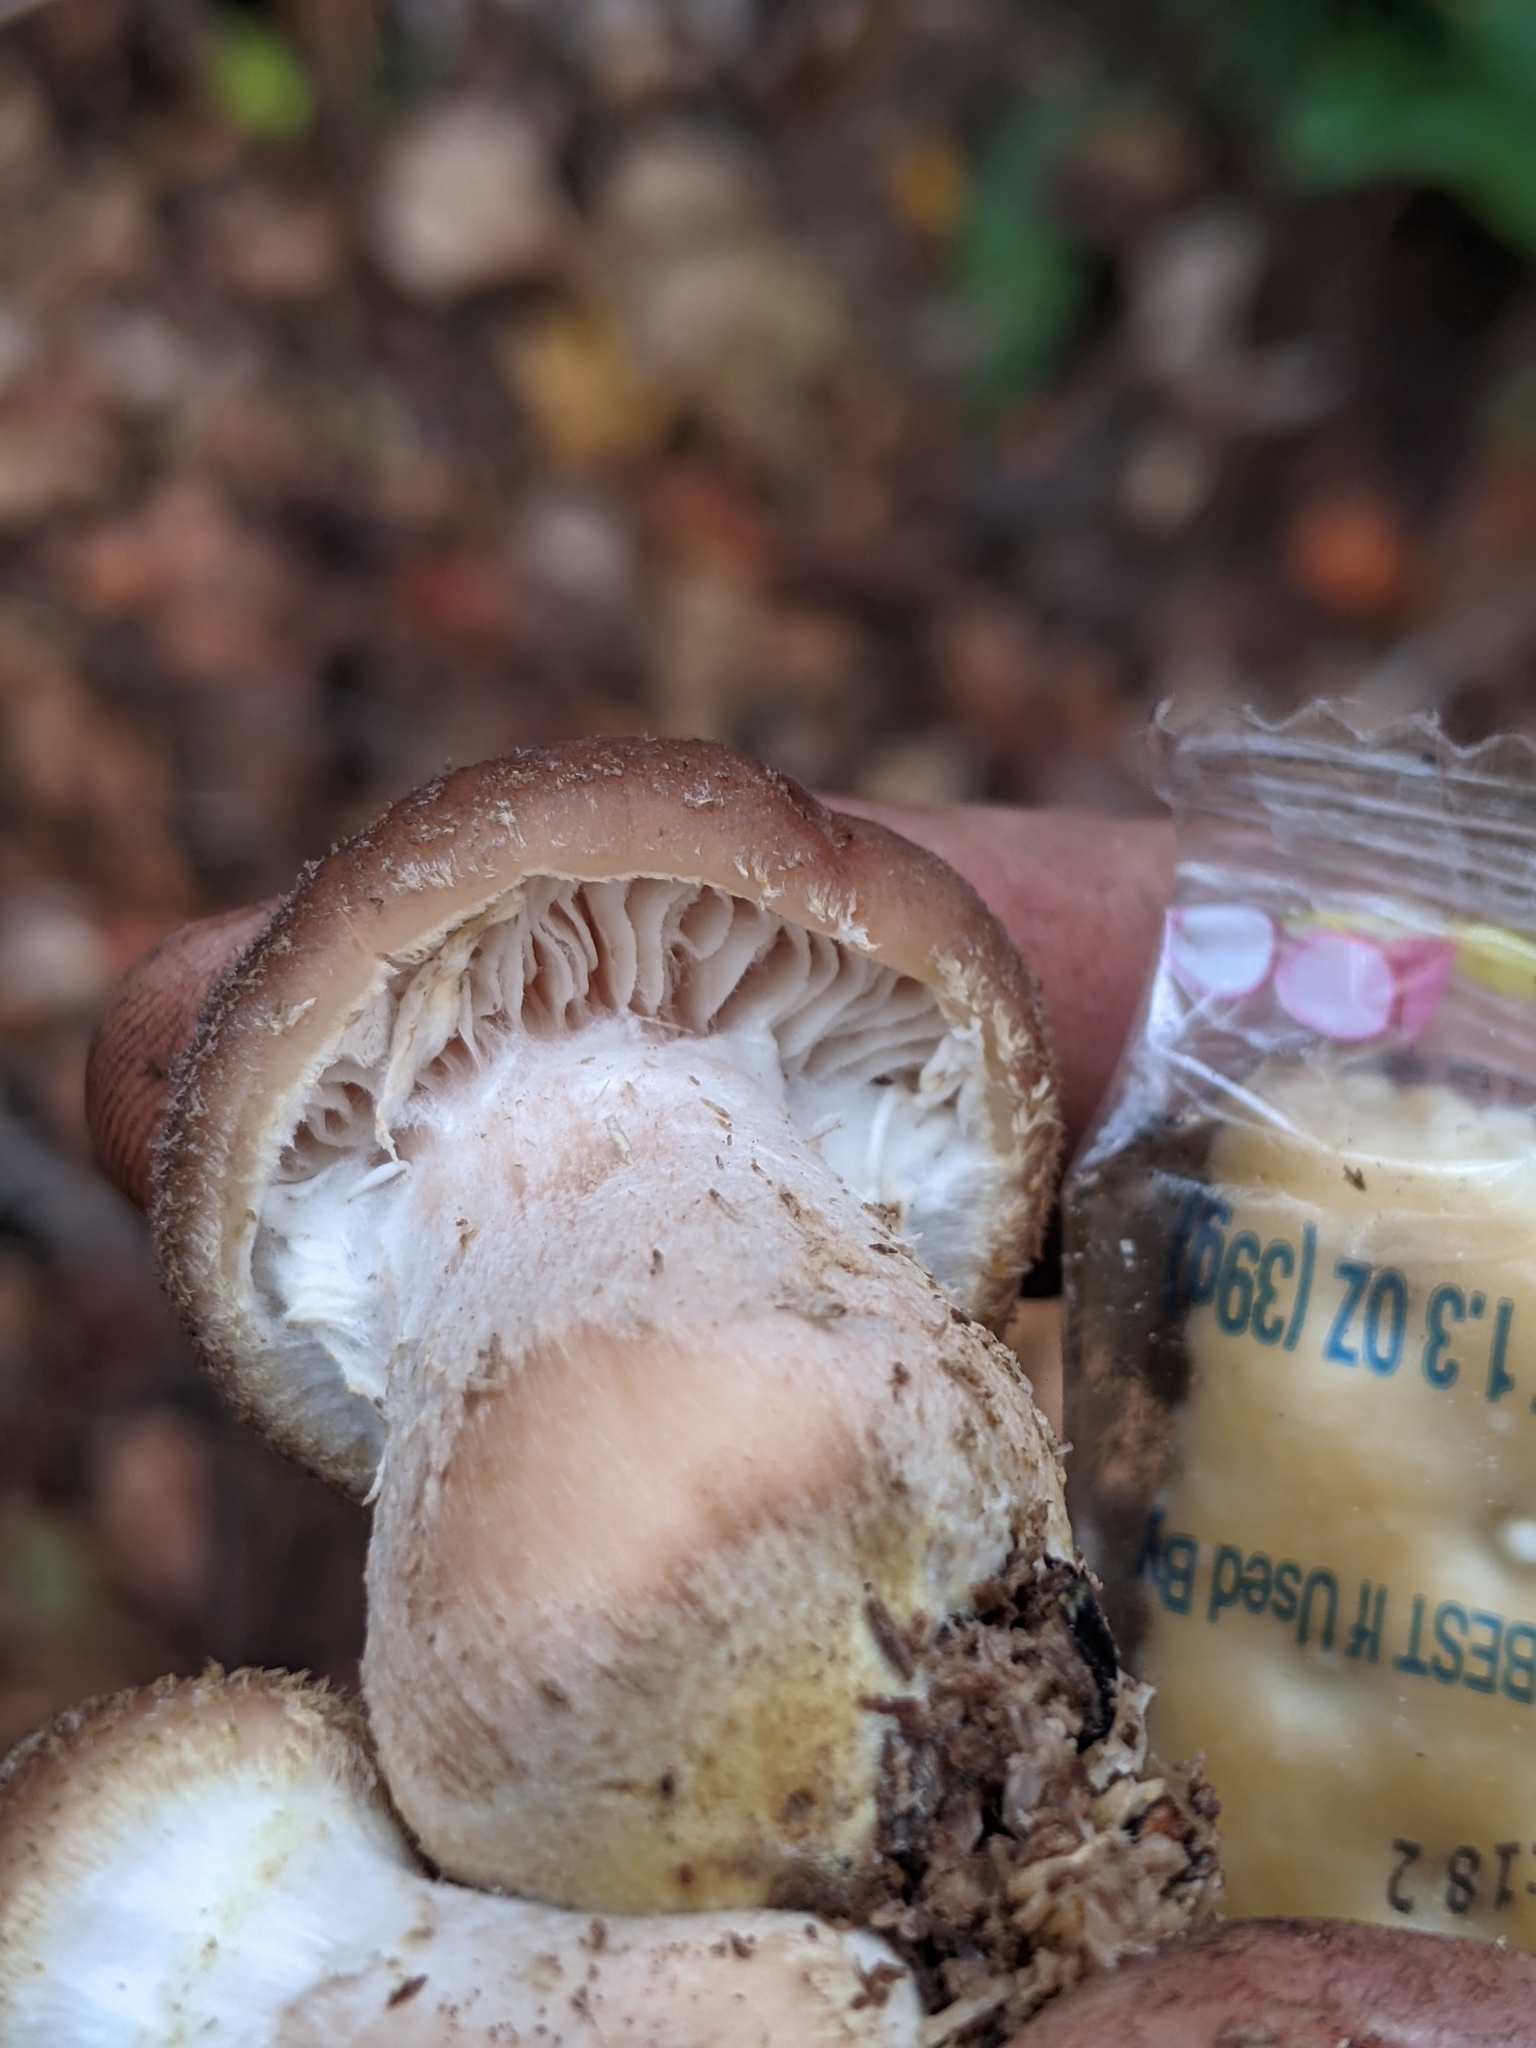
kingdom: Fungi
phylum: Basidiomycota
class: Agaricomycetes
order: Agaricales
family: Physalacriaceae
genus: Armillaria
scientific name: Armillaria gallica
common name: Bulbous honey fungus
